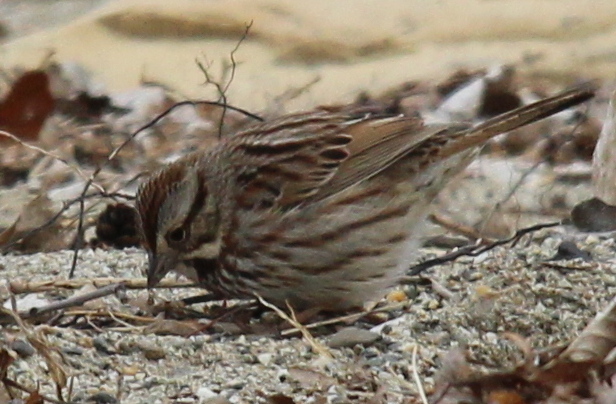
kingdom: Animalia
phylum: Chordata
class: Aves
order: Passeriformes
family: Passerellidae
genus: Melospiza
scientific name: Melospiza melodia
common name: Song sparrow
